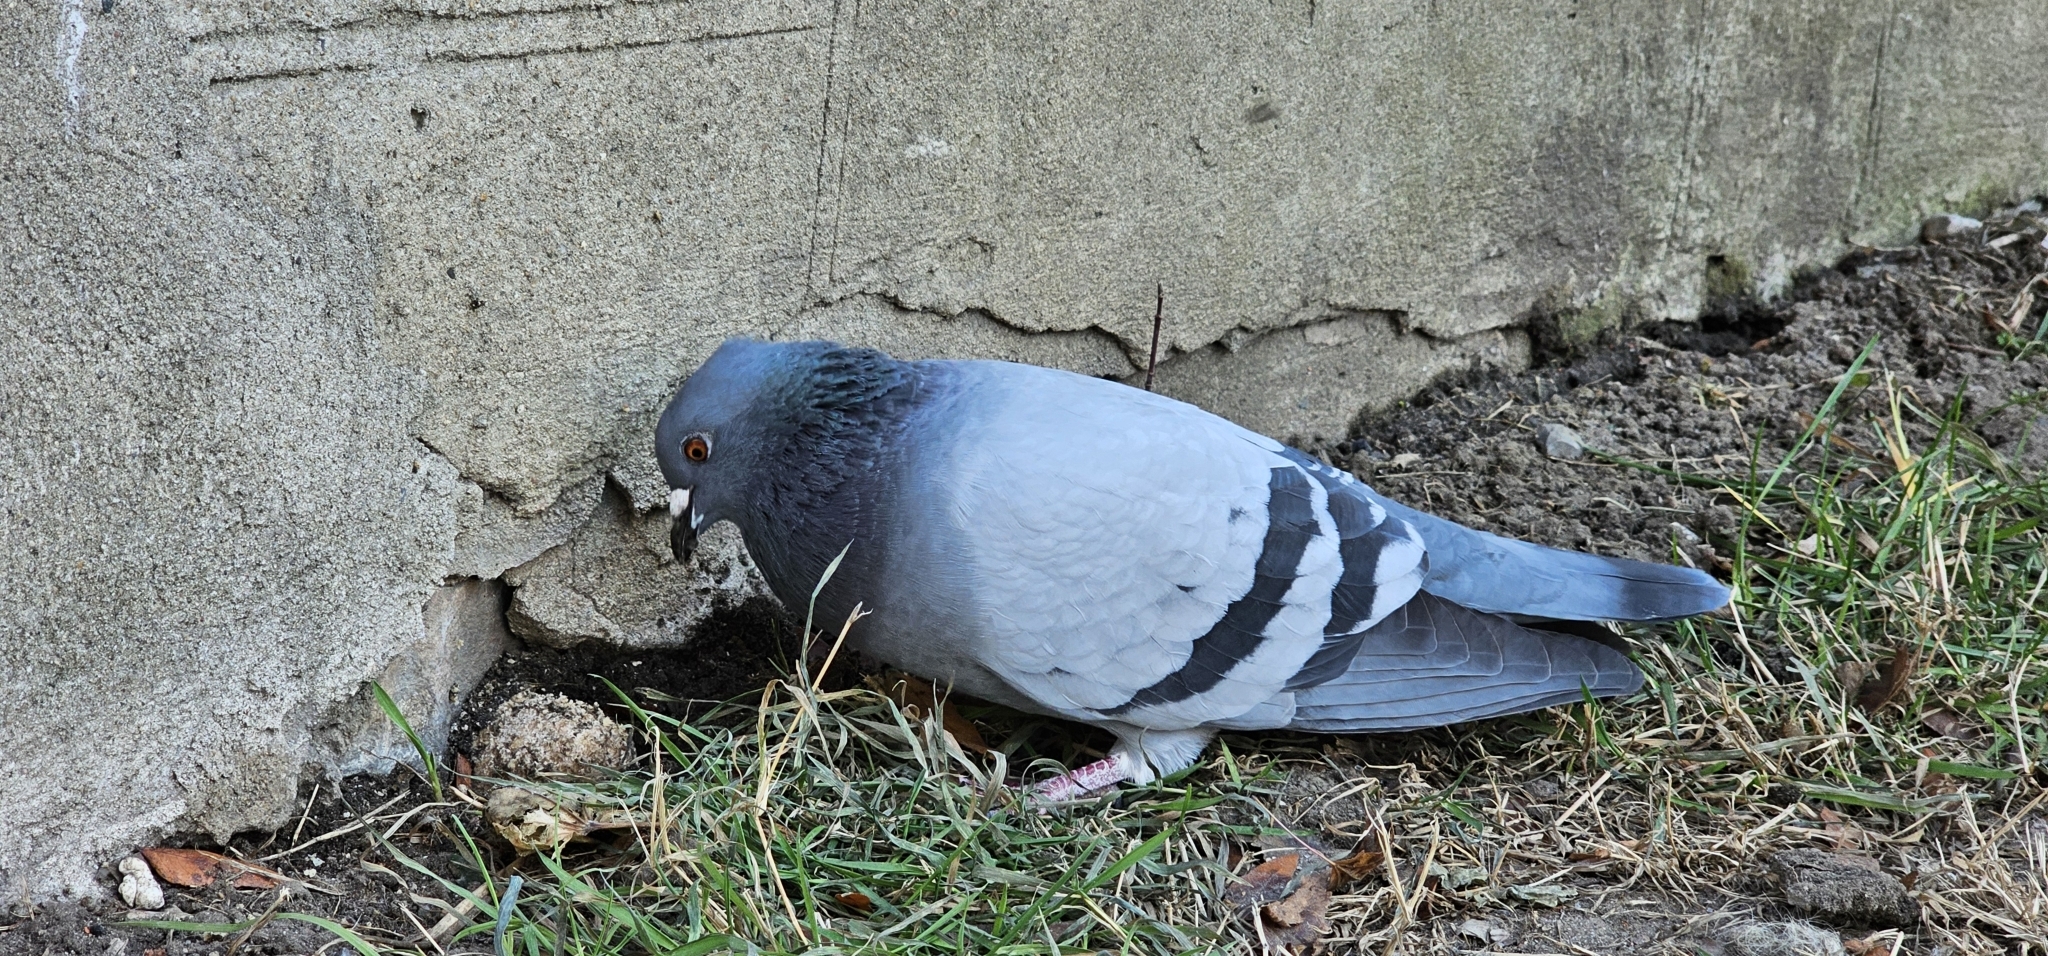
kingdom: Animalia
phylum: Chordata
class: Aves
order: Columbiformes
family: Columbidae
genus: Columba
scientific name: Columba livia
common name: Rock pigeon
